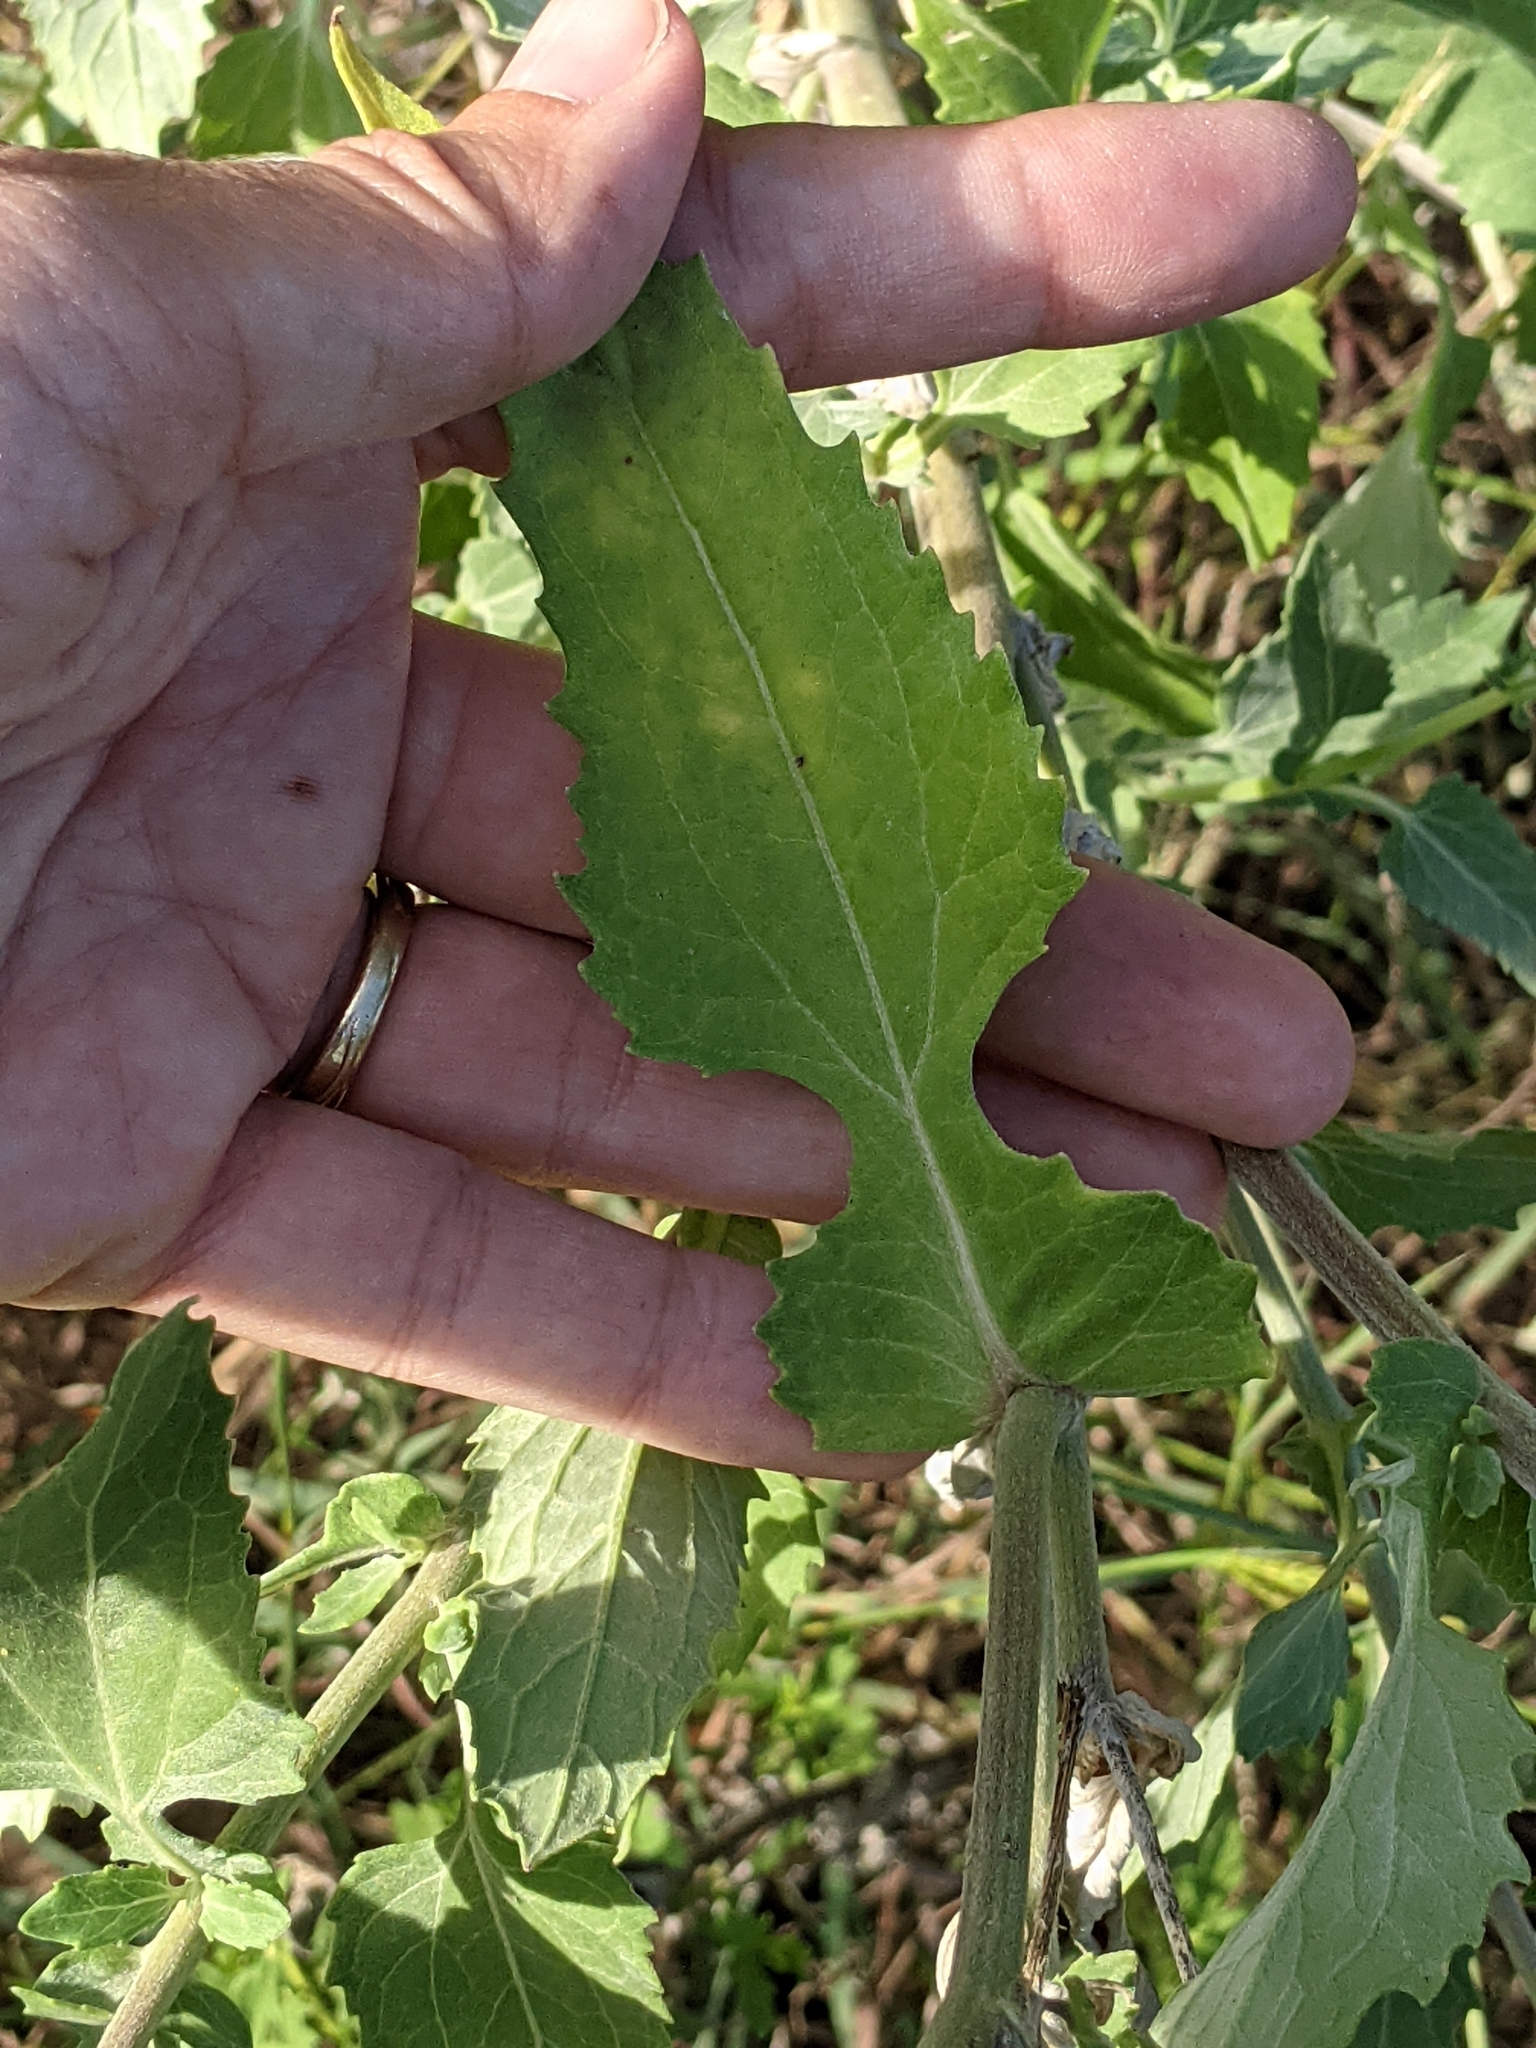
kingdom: Plantae
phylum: Tracheophyta
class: Magnoliopsida
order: Asterales
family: Asteraceae
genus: Verbesina
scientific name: Verbesina encelioides
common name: Golden crownbeard
